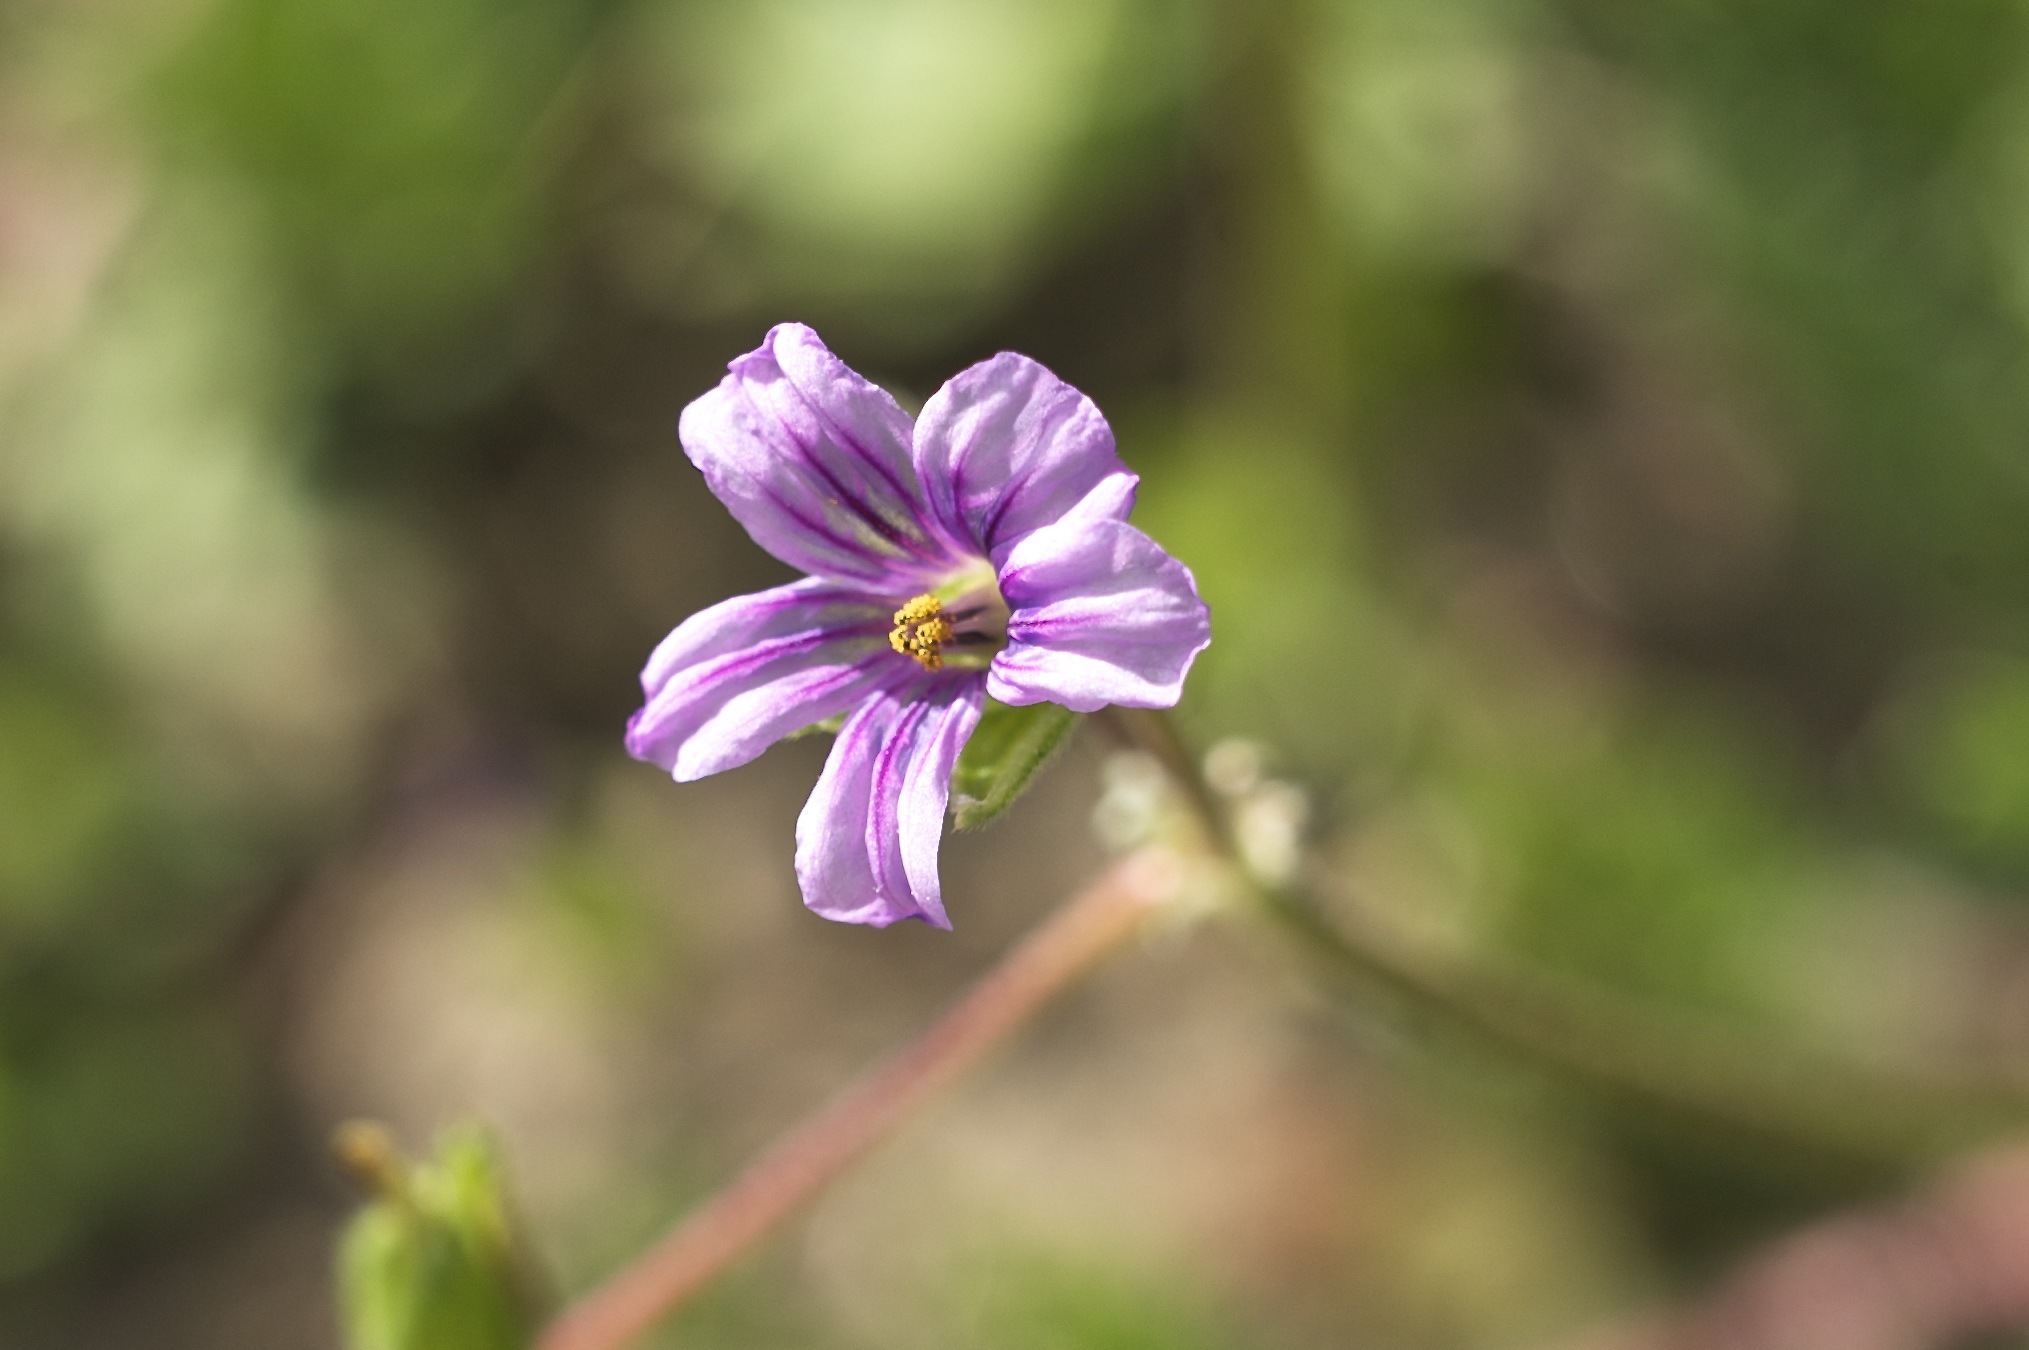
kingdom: Plantae
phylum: Tracheophyta
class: Magnoliopsida
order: Geraniales
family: Geraniaceae
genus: Erodium
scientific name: Erodium botrys
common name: Mediterranean stork's-bill
